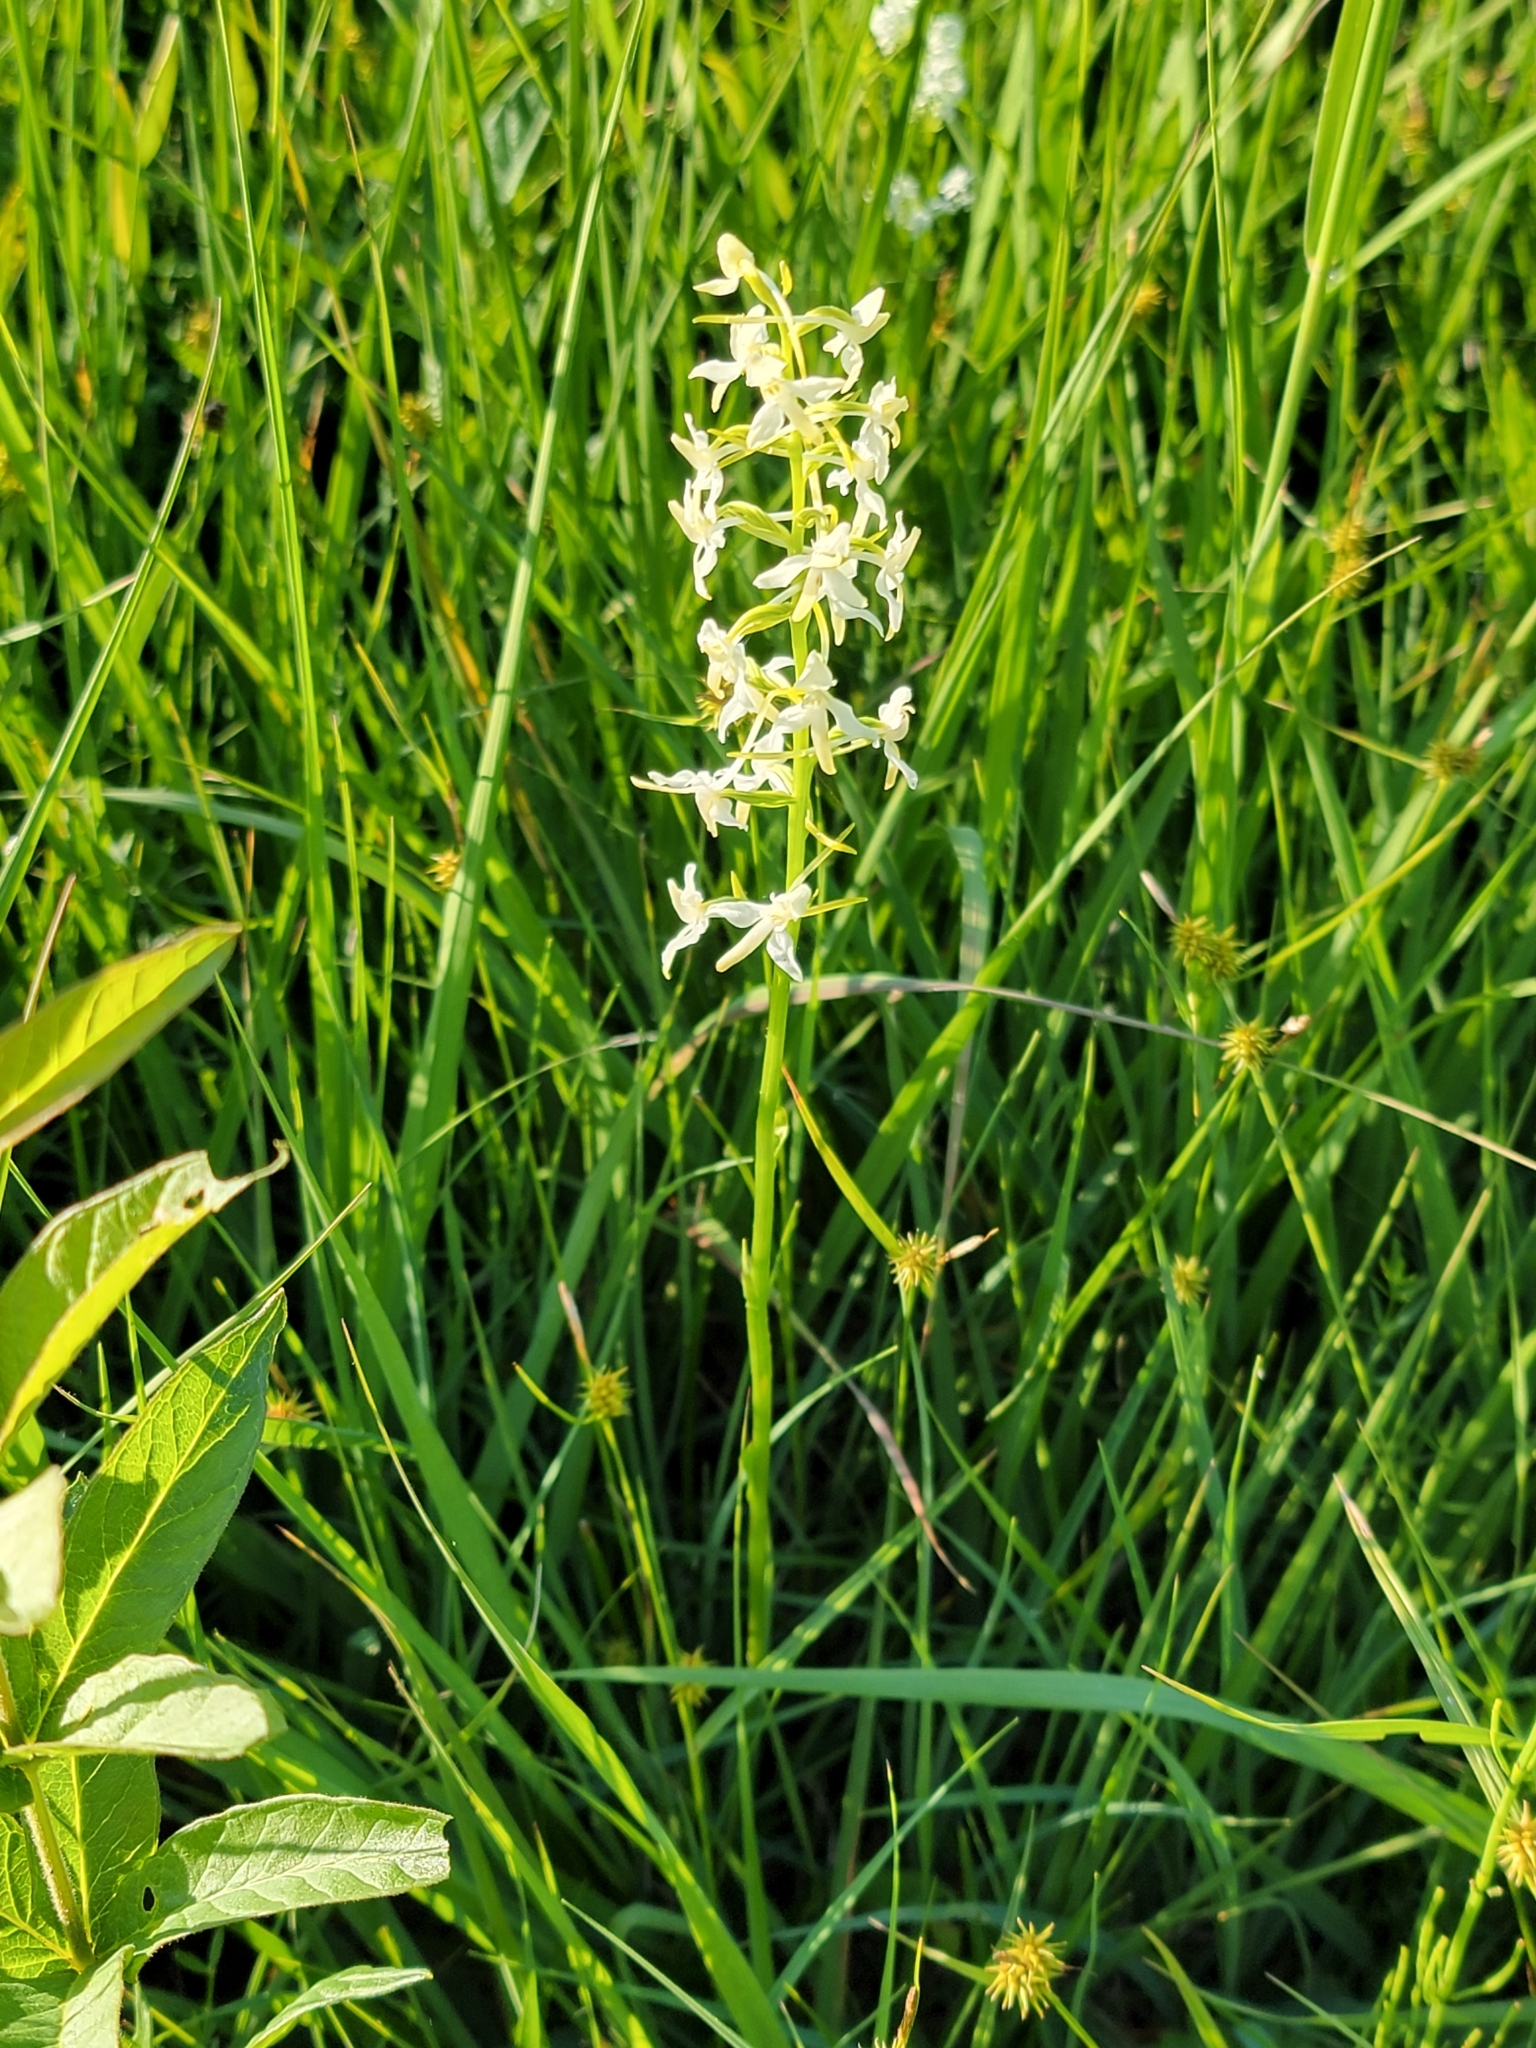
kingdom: Plantae
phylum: Tracheophyta
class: Liliopsida
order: Asparagales
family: Orchidaceae
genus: Platanthera
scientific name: Platanthera bifolia
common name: Lesser butterfly-orchid
